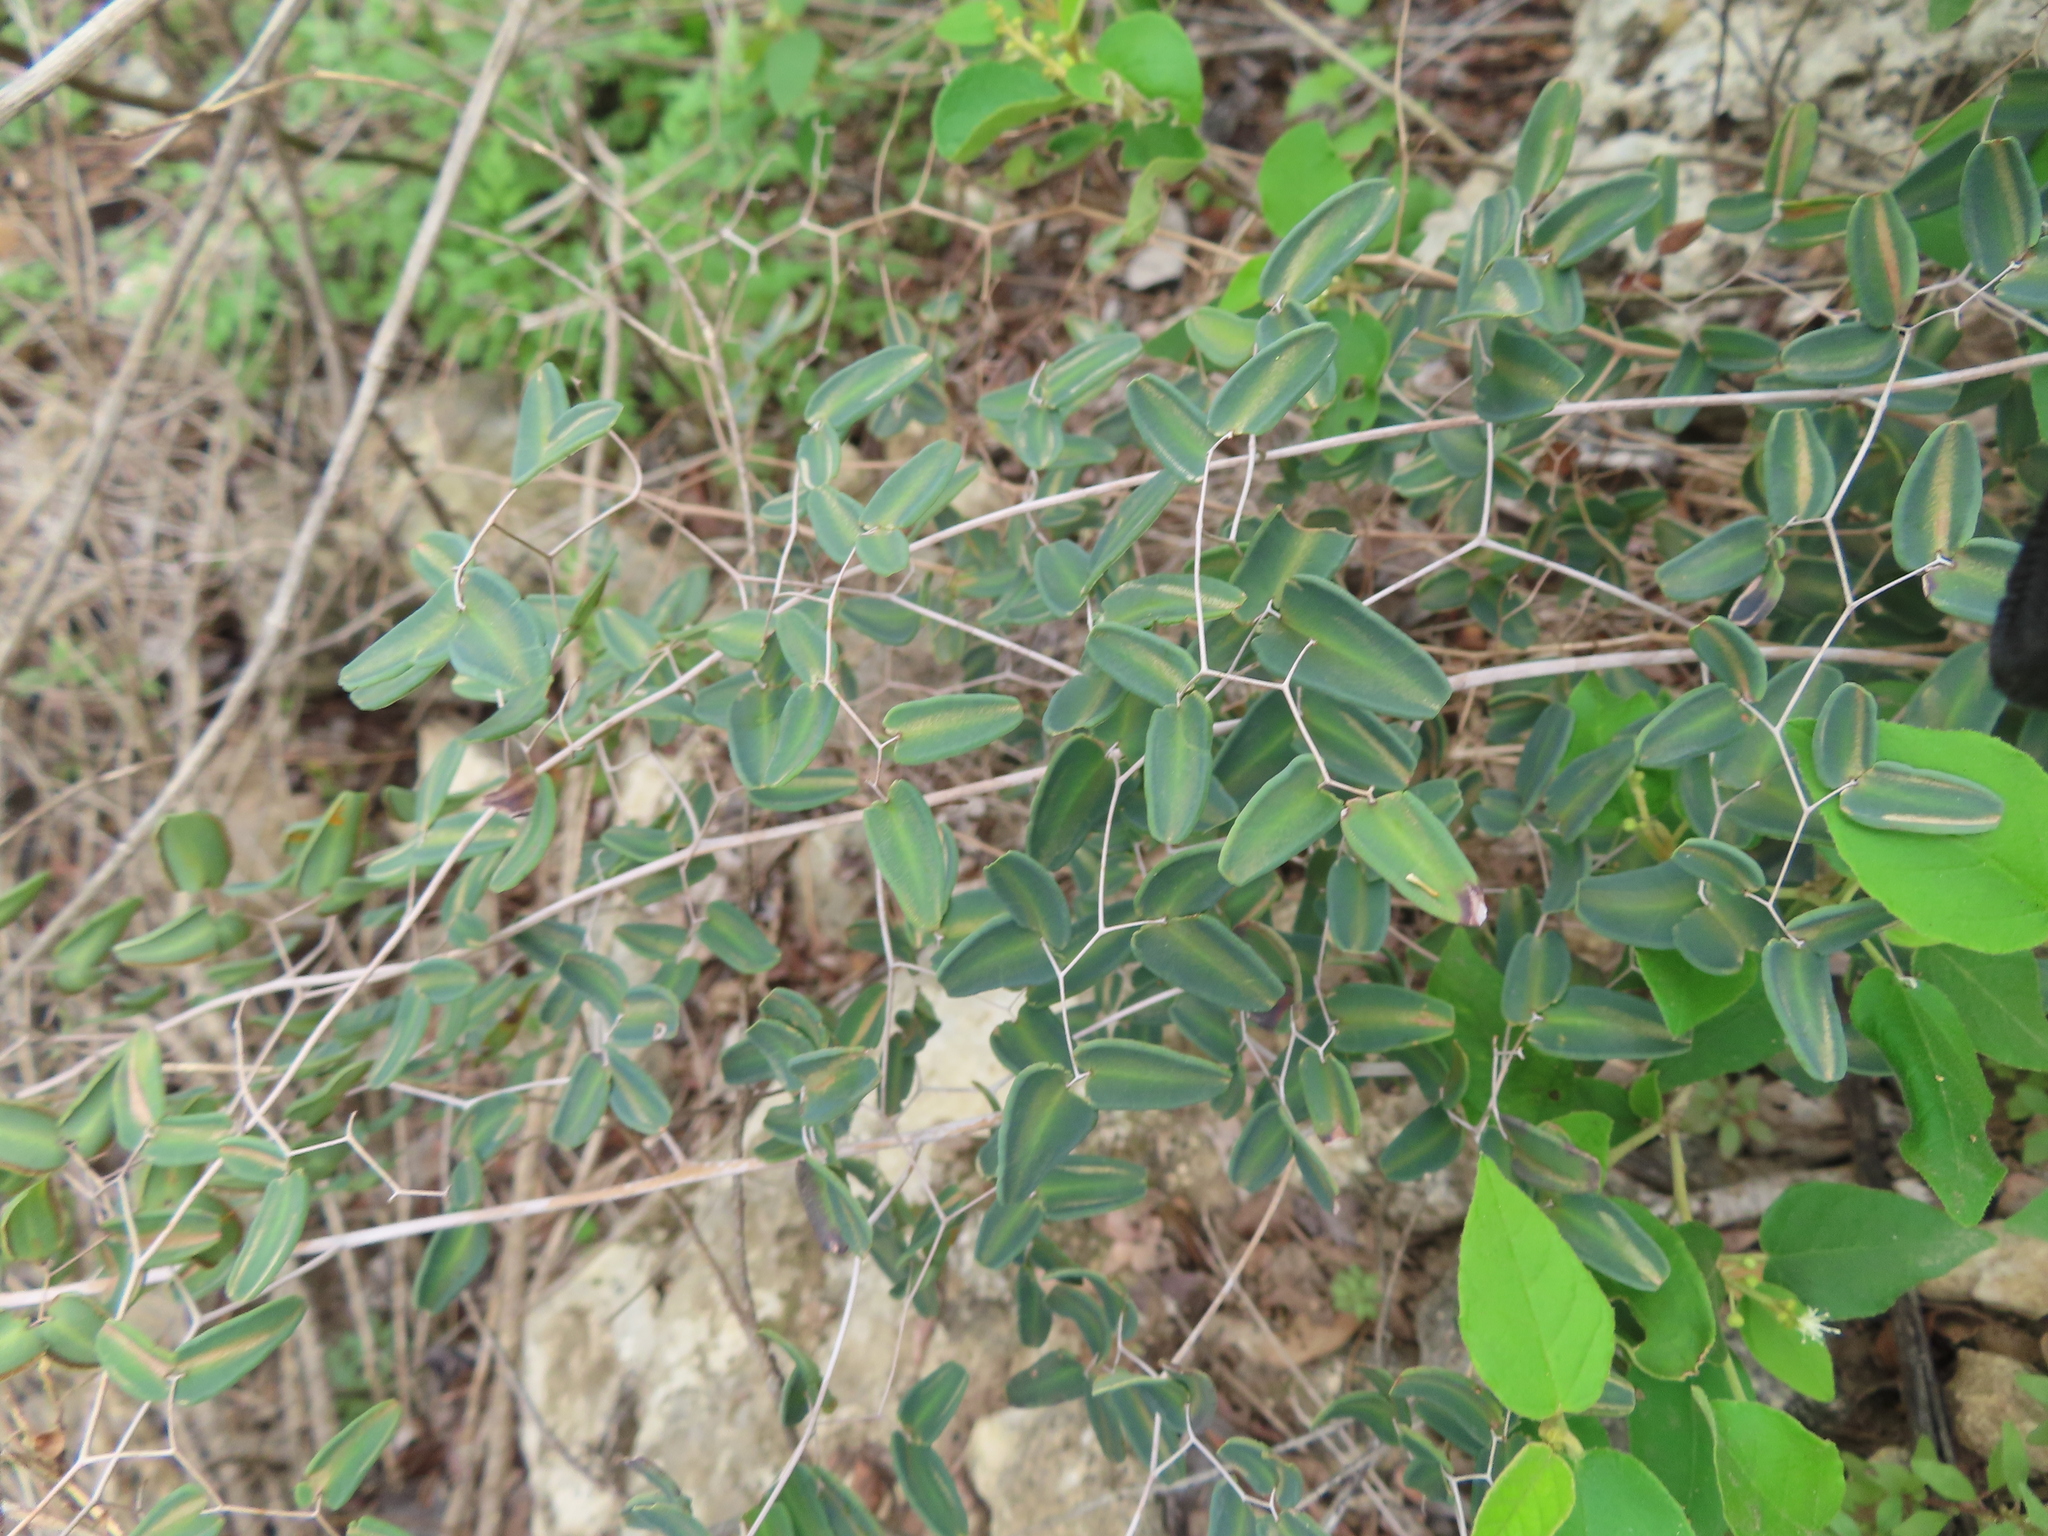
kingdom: Plantae
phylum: Tracheophyta
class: Polypodiopsida
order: Polypodiales
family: Pteridaceae
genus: Pellaea
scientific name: Pellaea ovata
